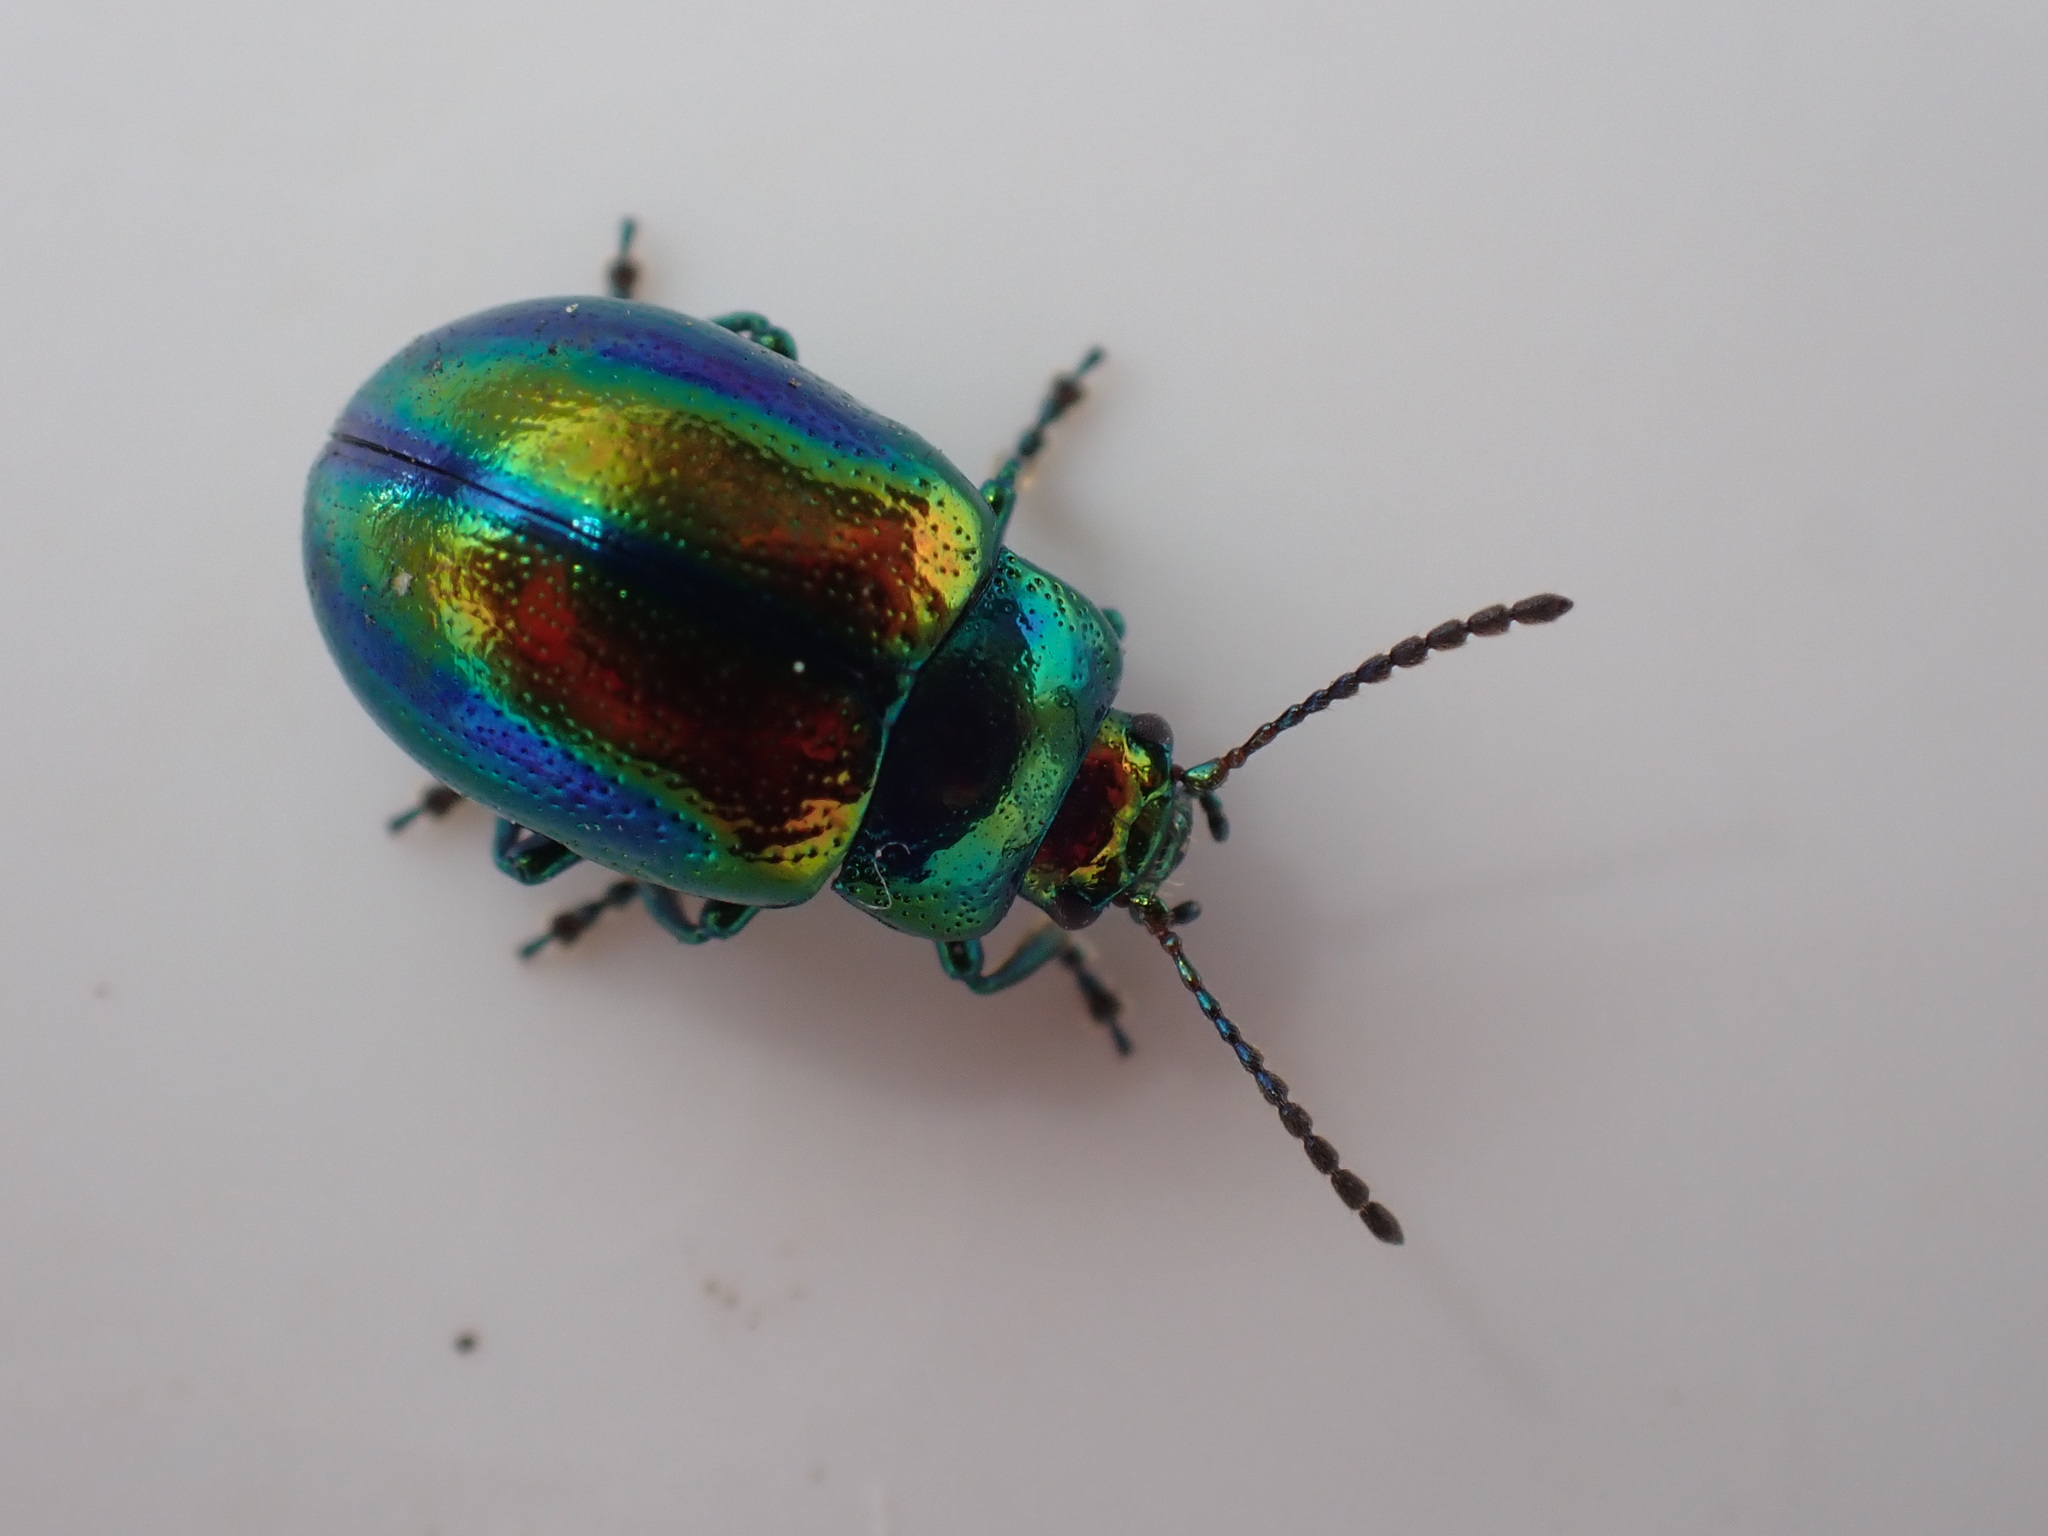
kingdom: Animalia
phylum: Arthropoda
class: Insecta
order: Coleoptera
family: Chrysomelidae
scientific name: Chrysomelidae
